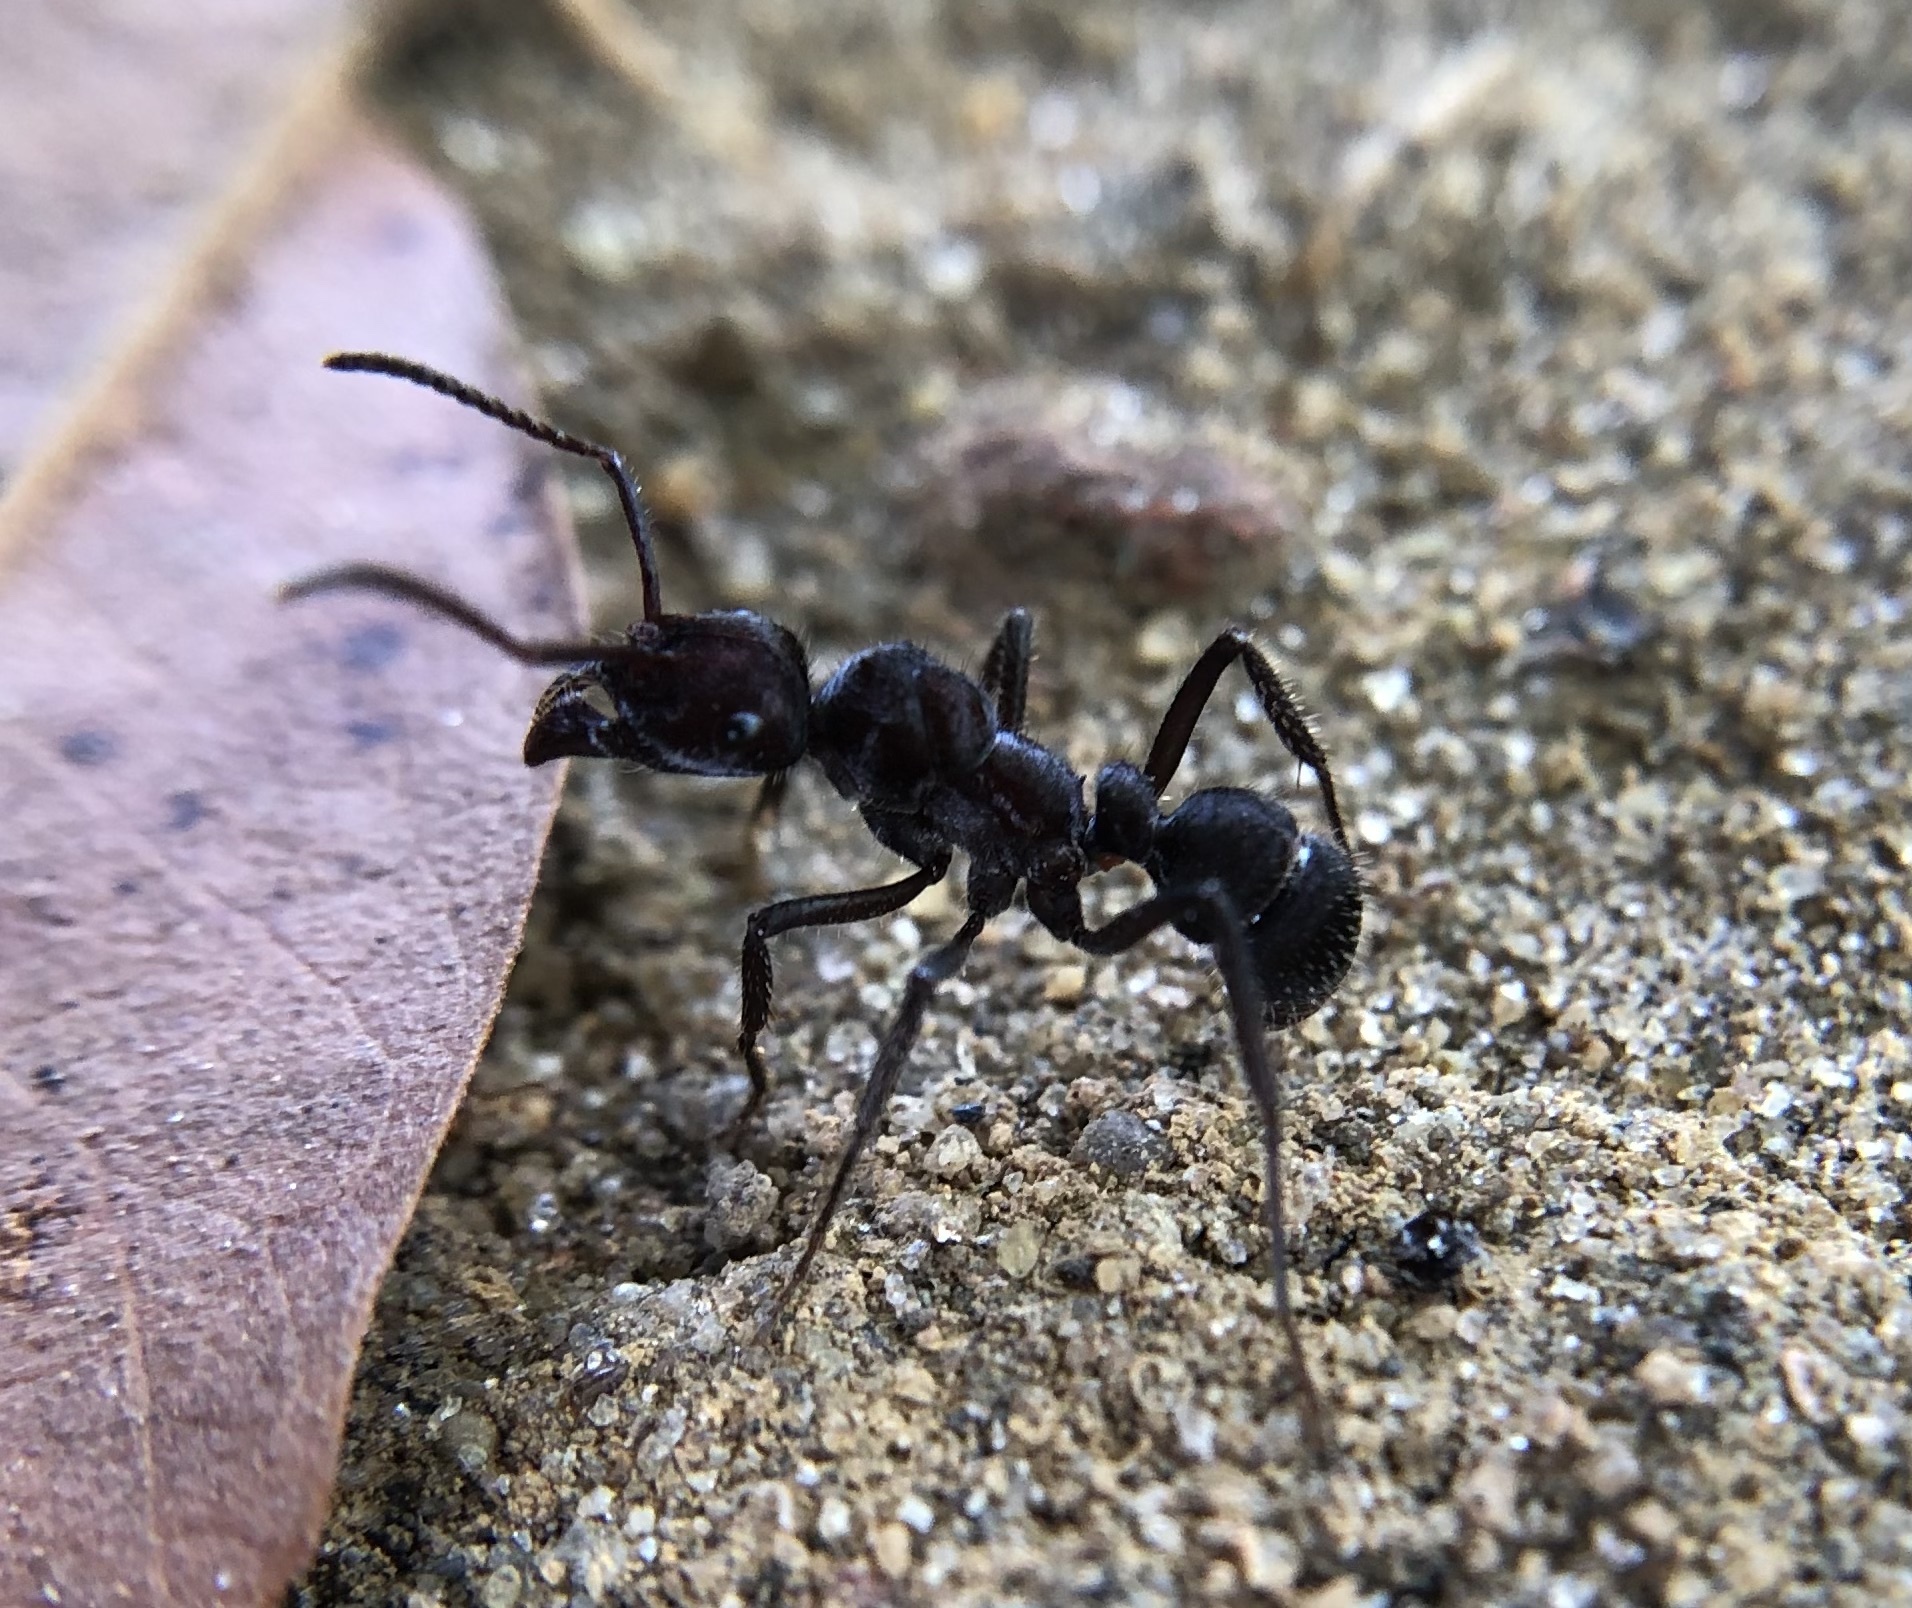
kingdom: Animalia
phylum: Arthropoda
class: Insecta
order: Hymenoptera
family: Formicidae
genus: Ectatomma
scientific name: Ectatomma brunneum
